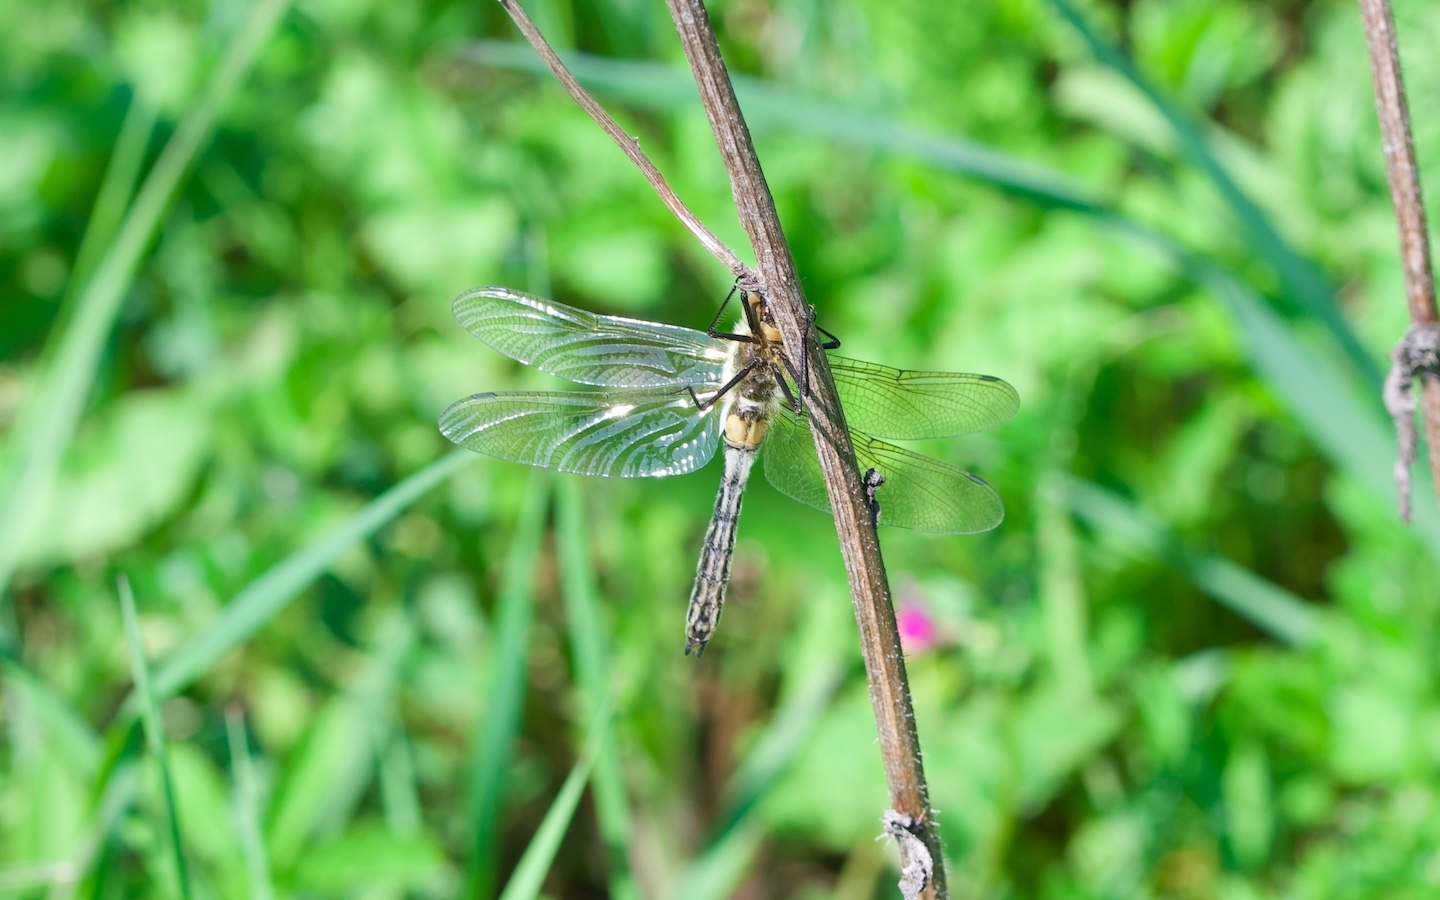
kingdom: Animalia
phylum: Arthropoda
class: Insecta
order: Odonata
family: Corduliidae
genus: Cordulia
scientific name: Cordulia aenea
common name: Downy emerald
